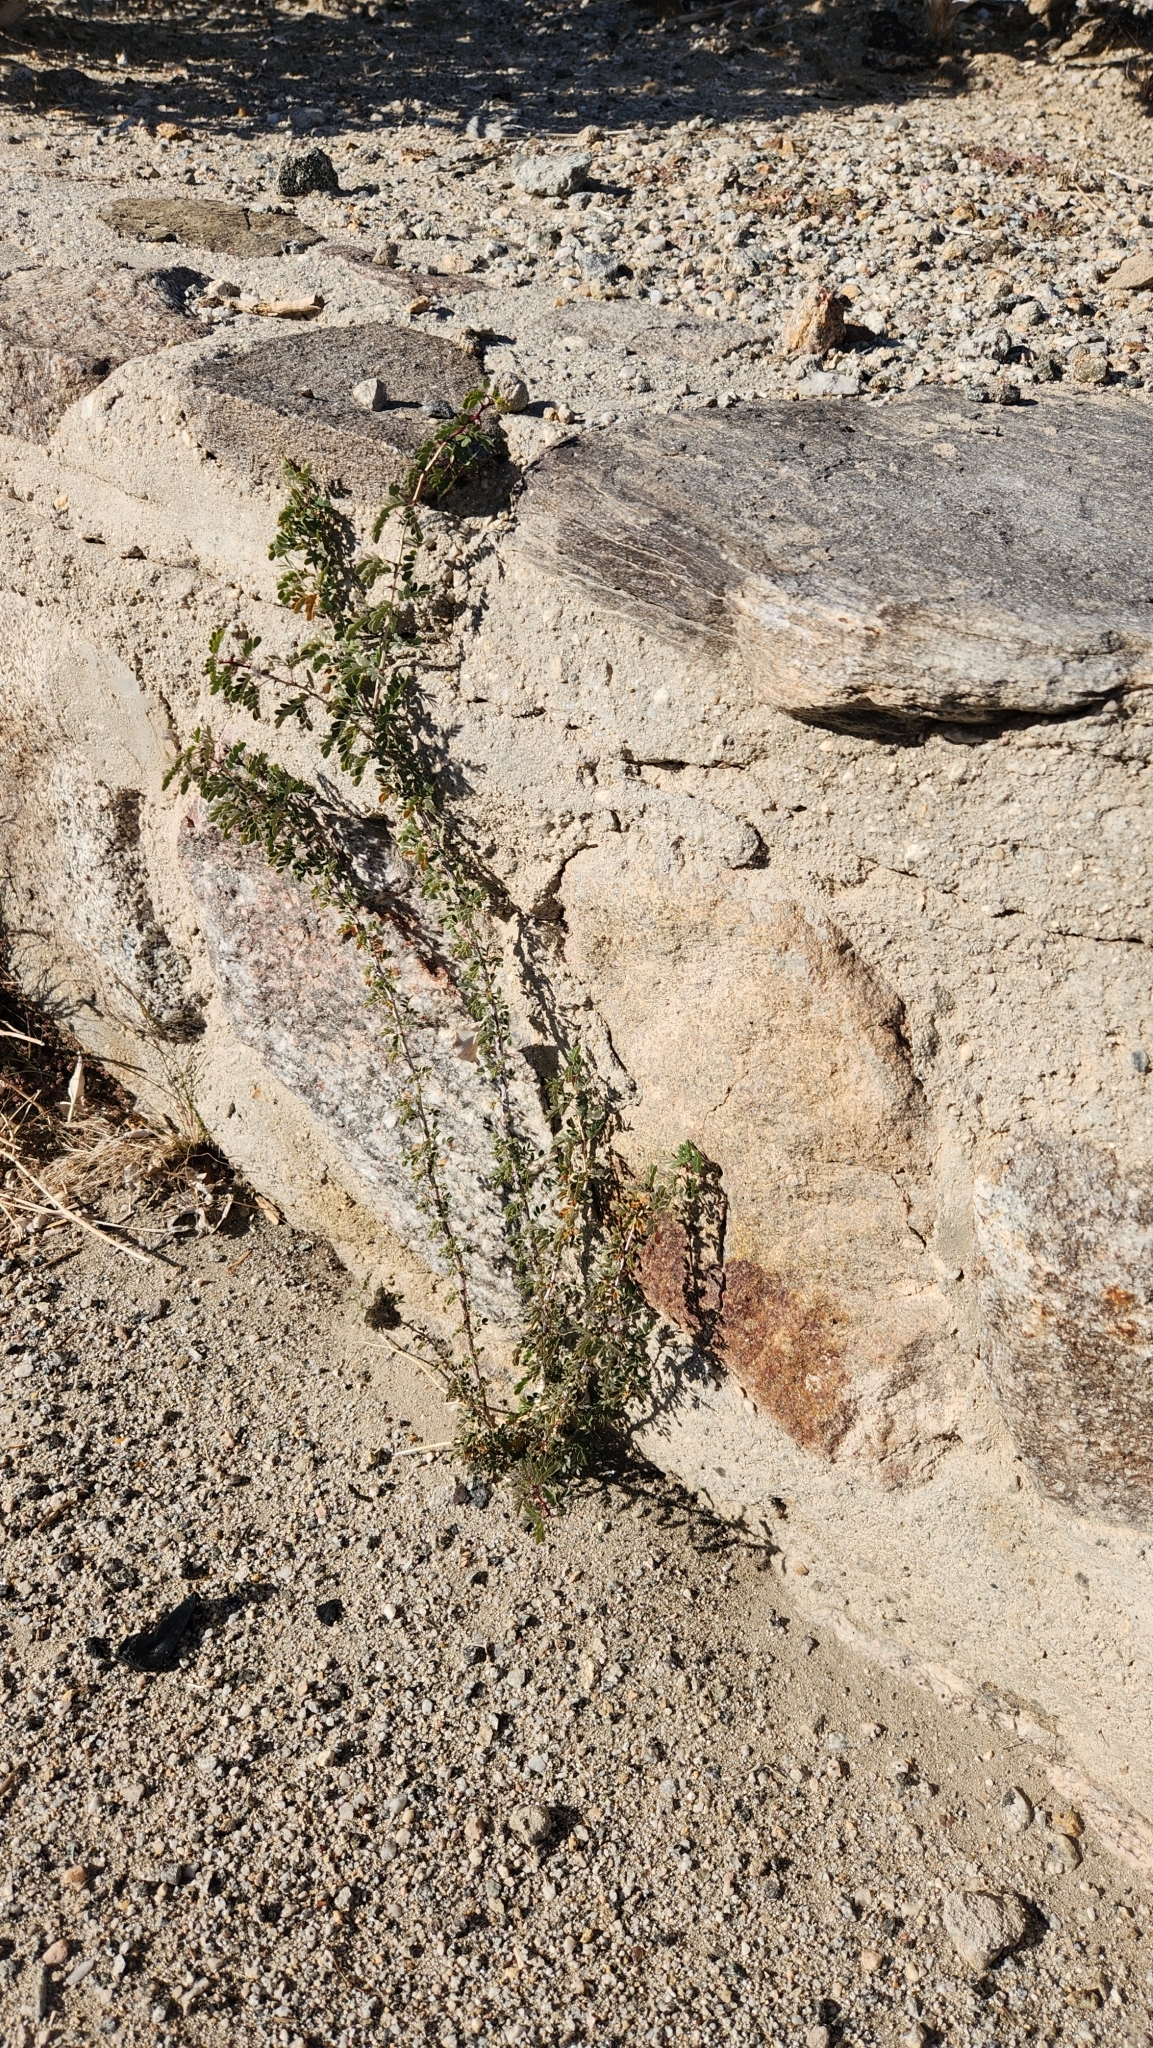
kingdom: Plantae
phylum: Tracheophyta
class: Magnoliopsida
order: Fabales
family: Fabaceae
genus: Senegalia
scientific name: Senegalia greggii
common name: Texas-mimosa
